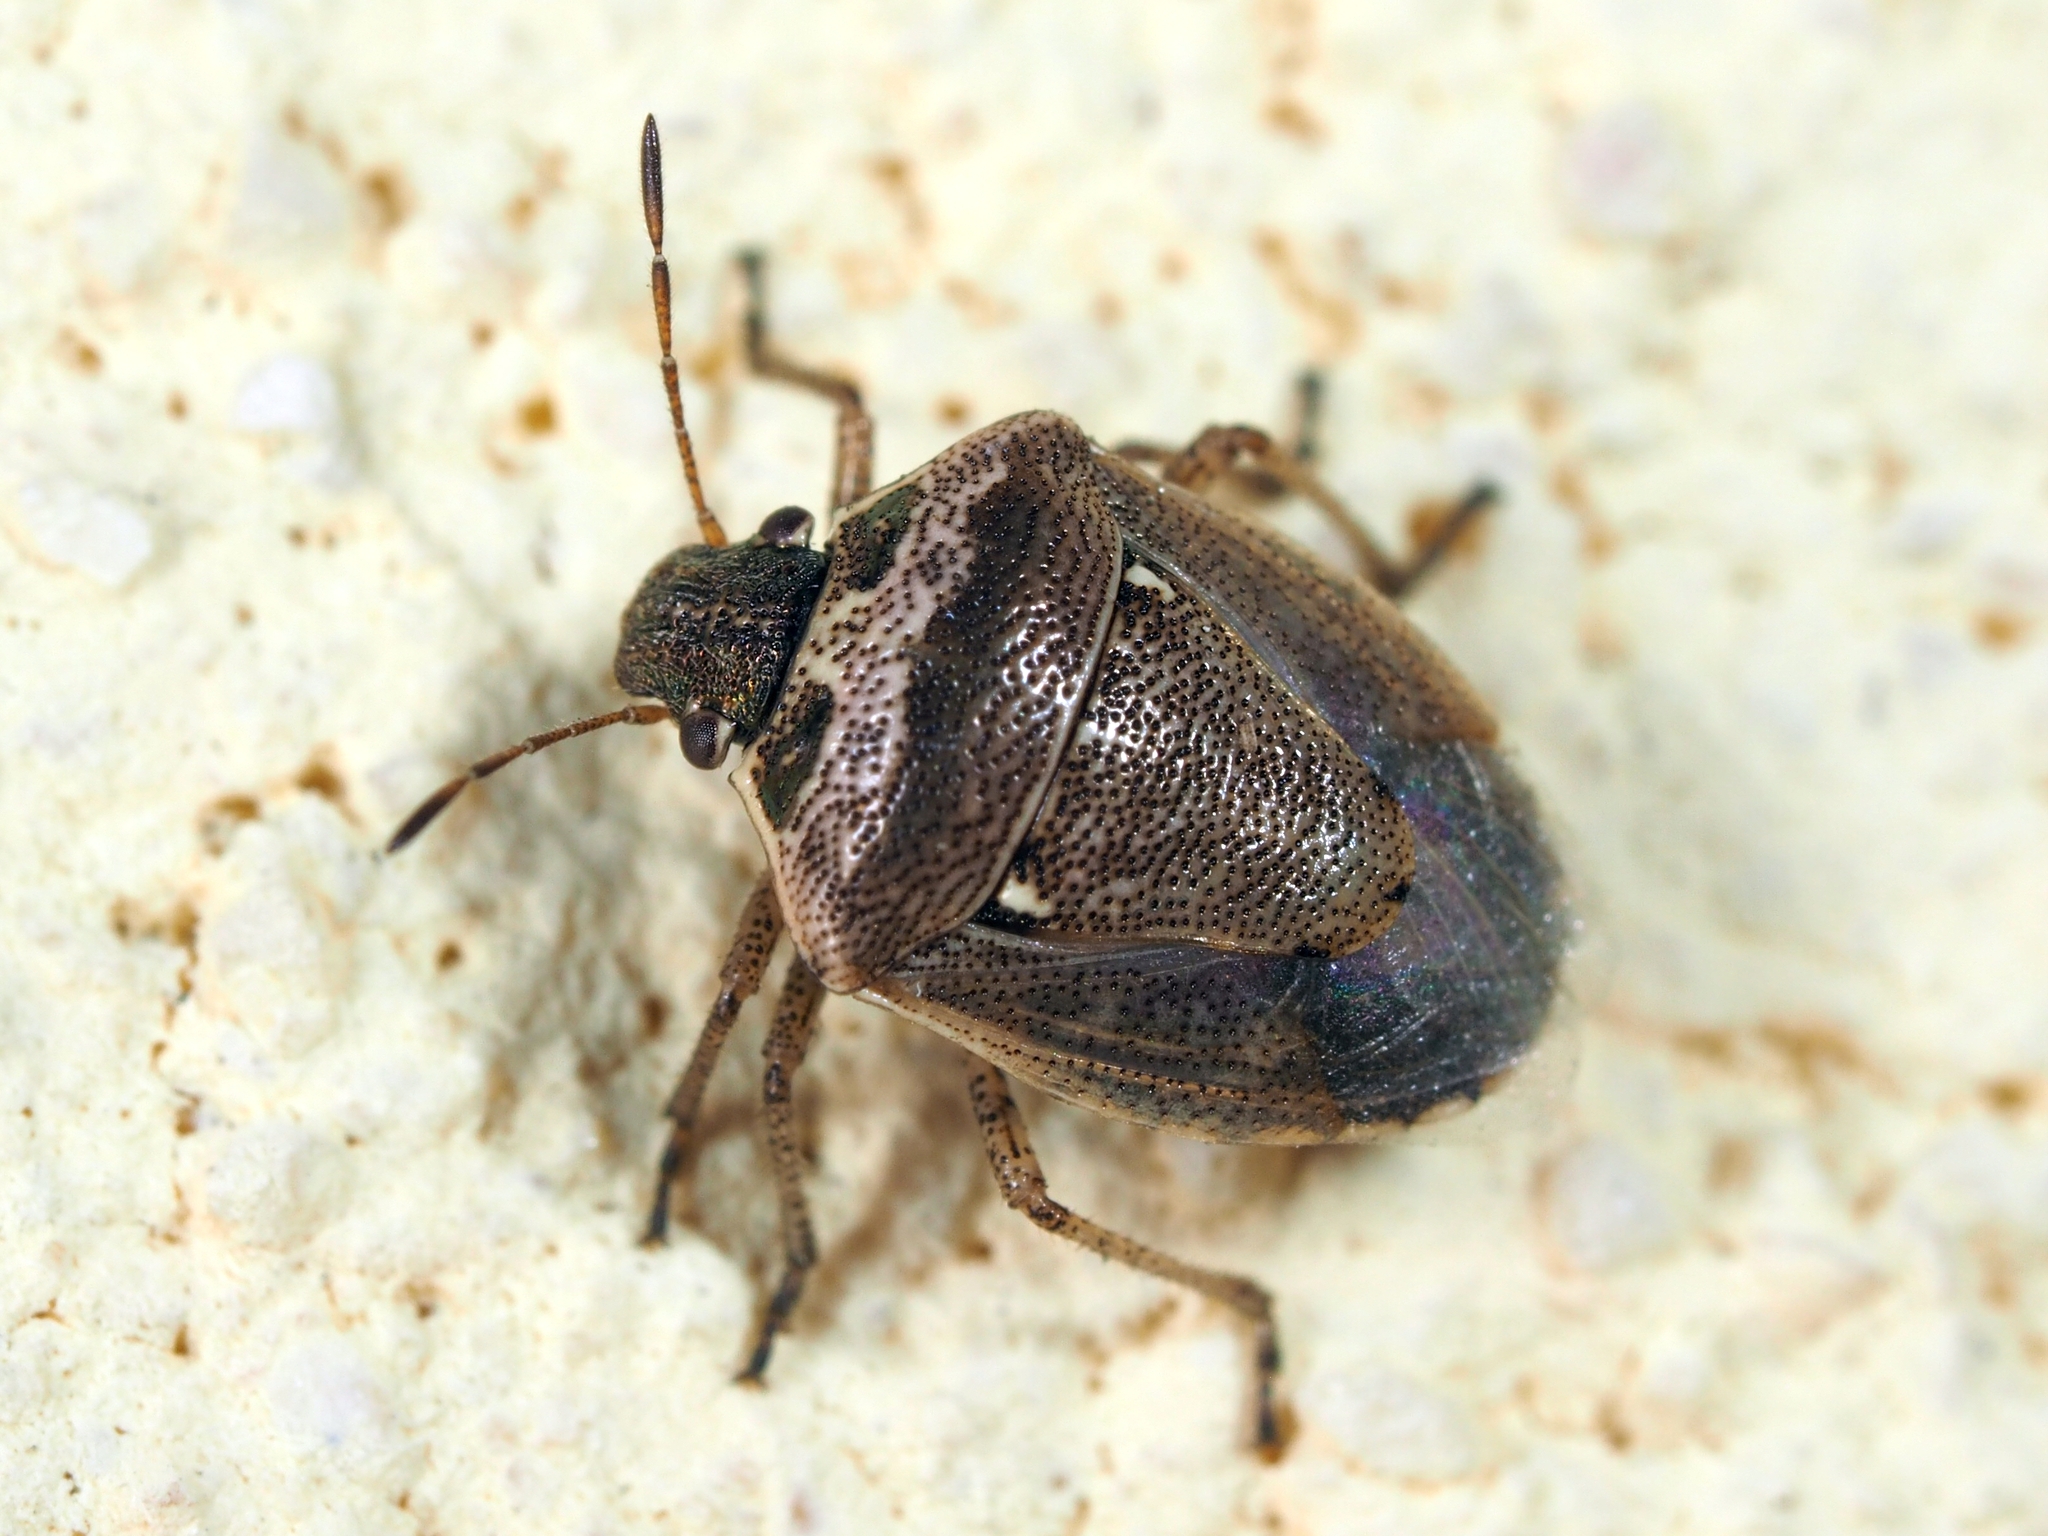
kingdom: Animalia
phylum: Arthropoda
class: Insecta
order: Hemiptera
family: Pentatomidae
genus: Eysarcoris
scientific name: Eysarcoris ventralis
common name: White-spotted stink bug
